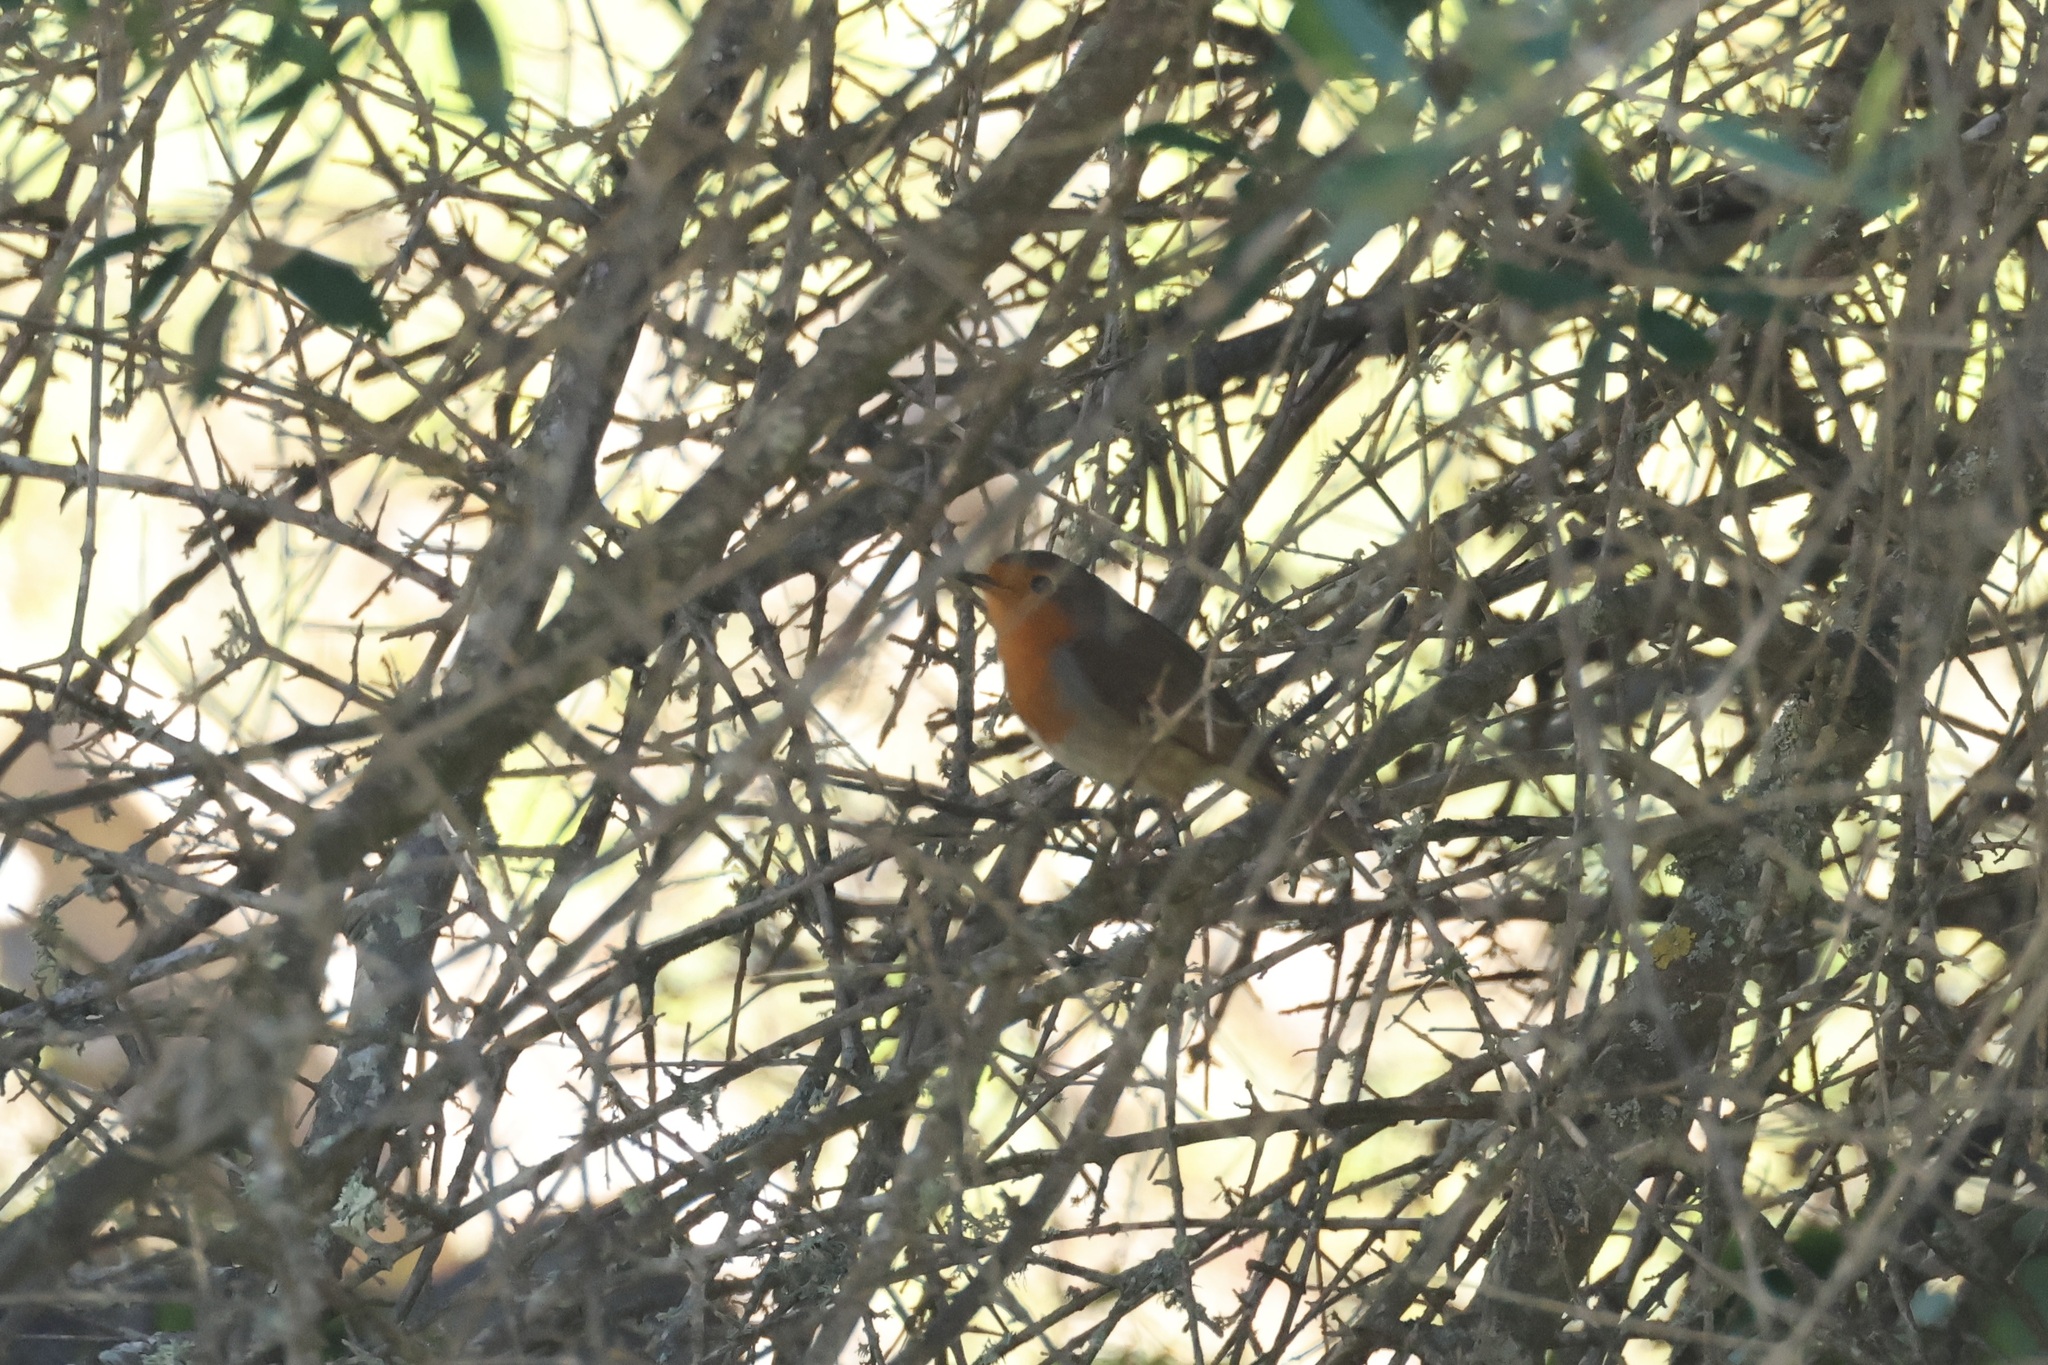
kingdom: Animalia
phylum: Chordata
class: Aves
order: Passeriformes
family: Muscicapidae
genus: Erithacus
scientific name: Erithacus rubecula
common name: European robin
